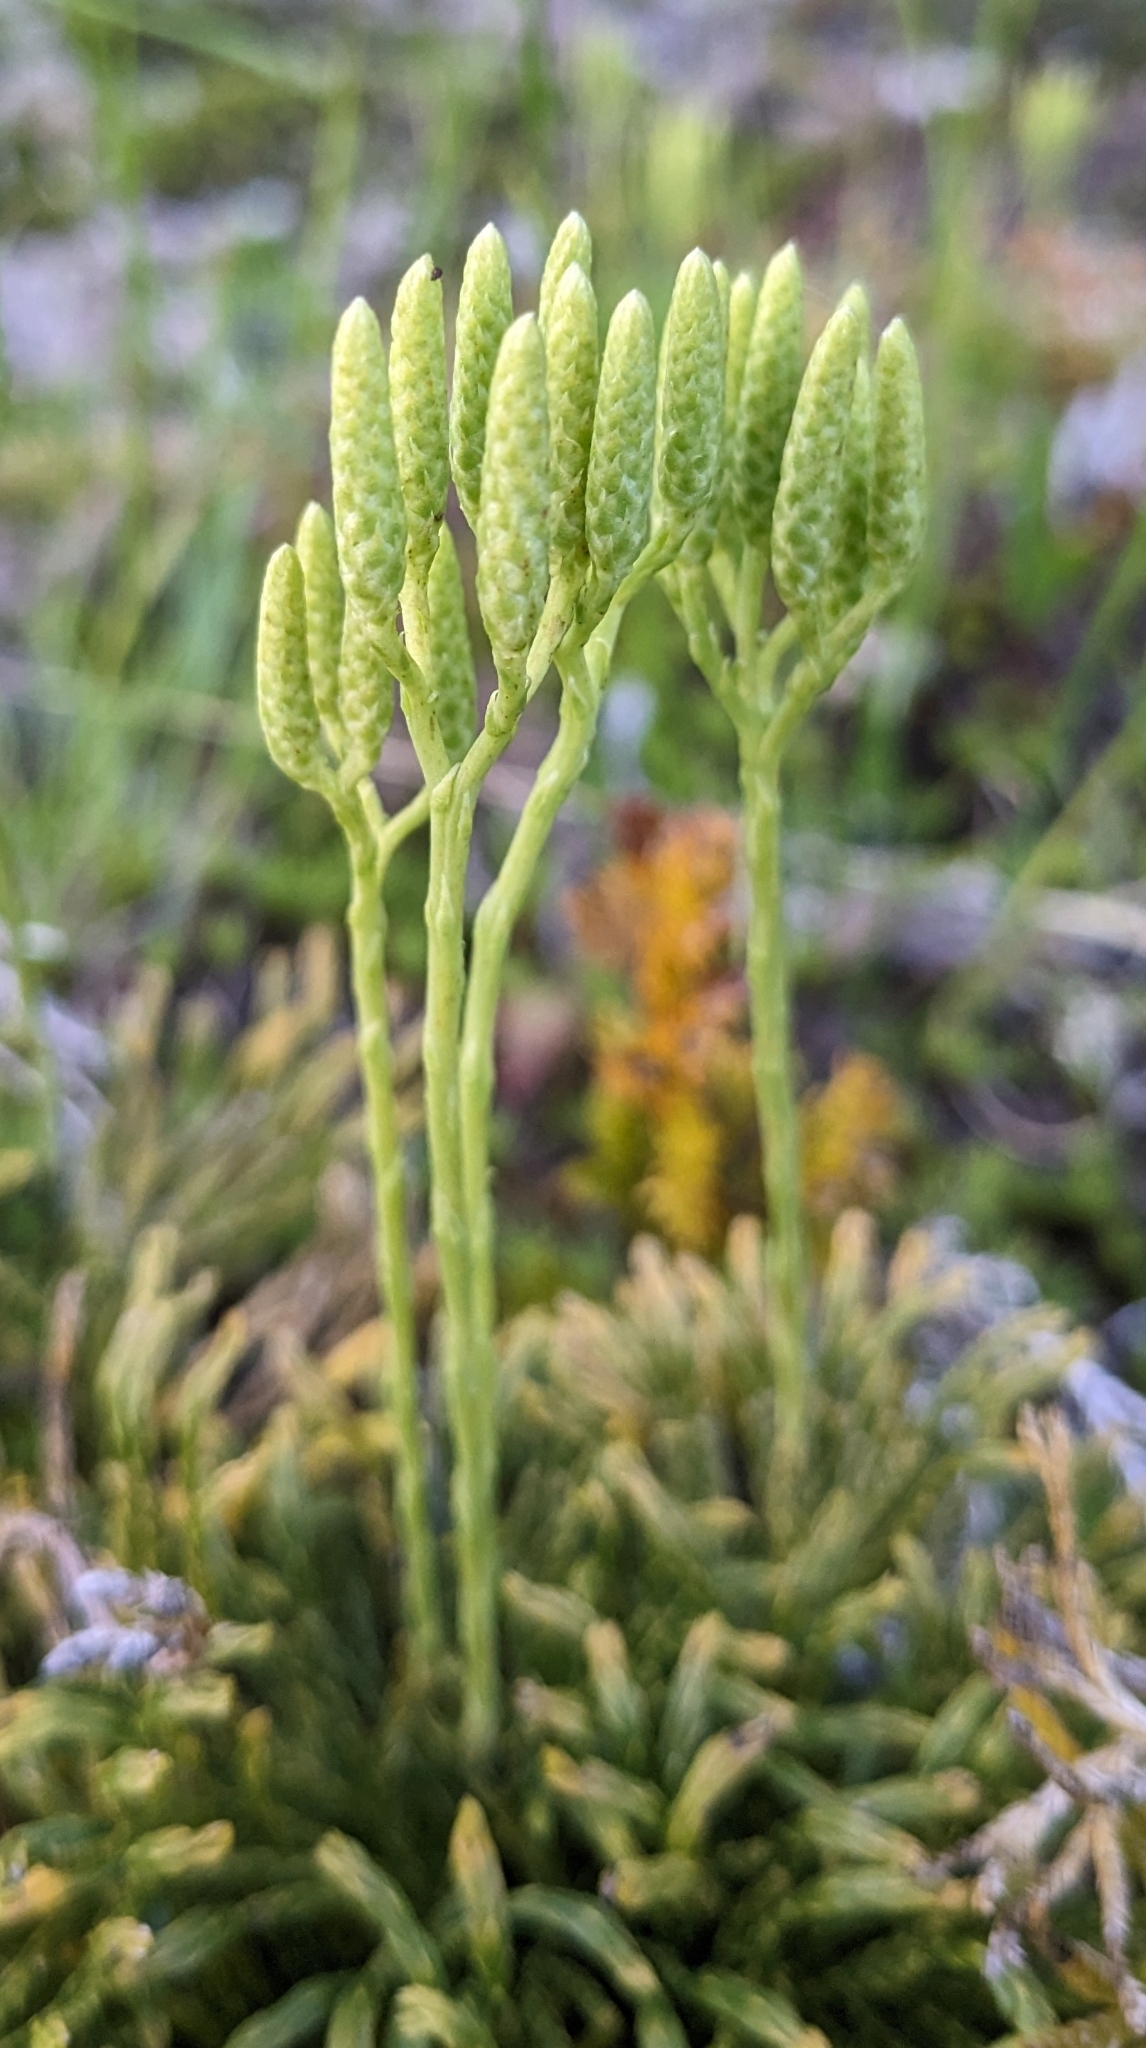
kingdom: Plantae
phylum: Tracheophyta
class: Lycopodiopsida
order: Lycopodiales
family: Lycopodiaceae
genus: Diphasiastrum
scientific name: Diphasiastrum tristachyum
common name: Blue ground-cedar
